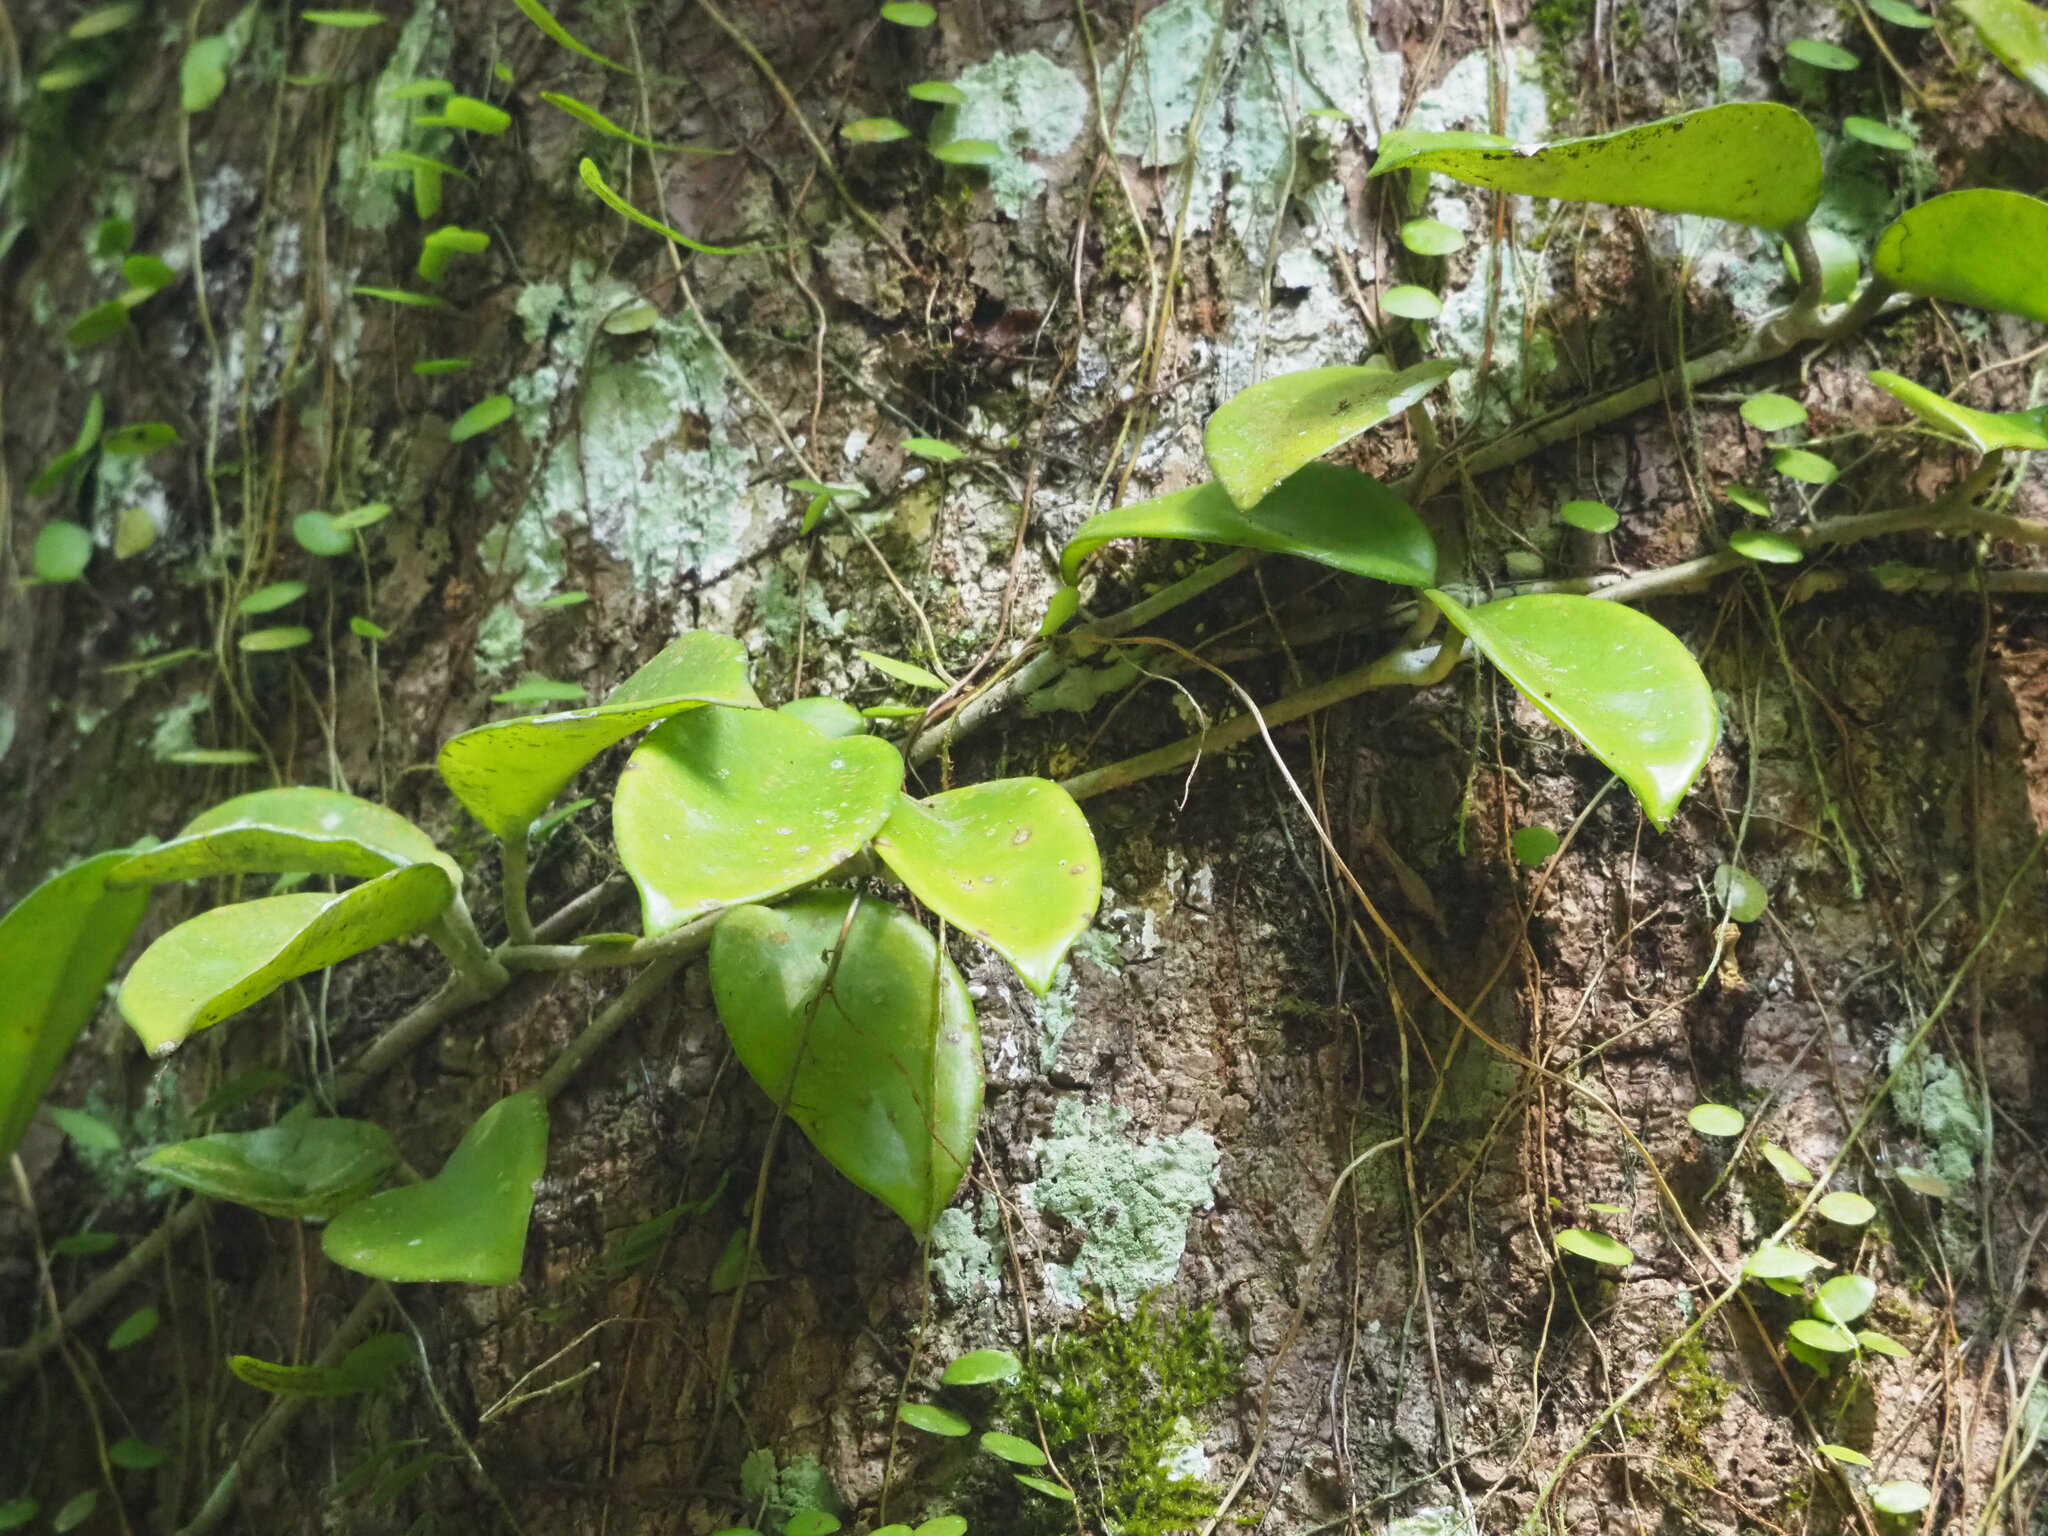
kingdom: Plantae
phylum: Tracheophyta
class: Magnoliopsida
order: Gentianales
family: Apocynaceae
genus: Hoya
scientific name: Hoya carnosa
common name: Honeyplant
